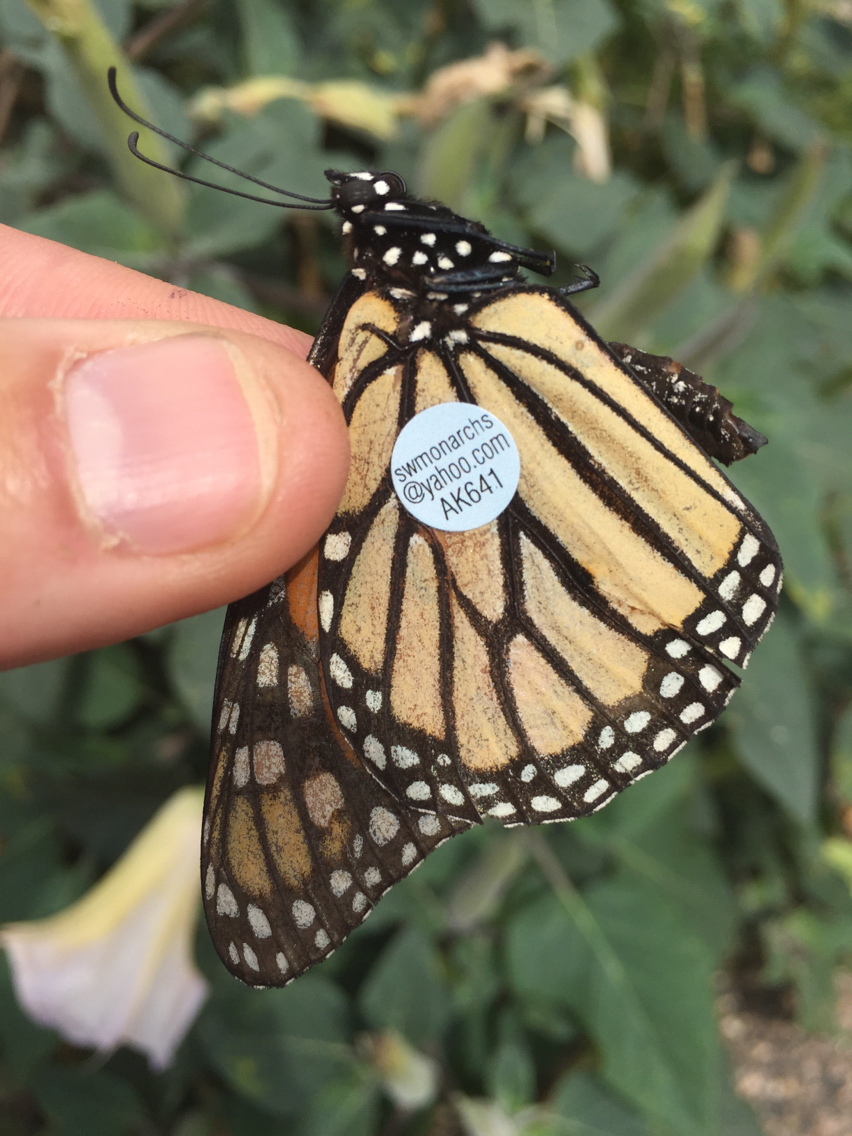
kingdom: Animalia
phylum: Arthropoda
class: Insecta
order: Lepidoptera
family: Nymphalidae
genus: Danaus
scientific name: Danaus plexippus
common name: Monarch
